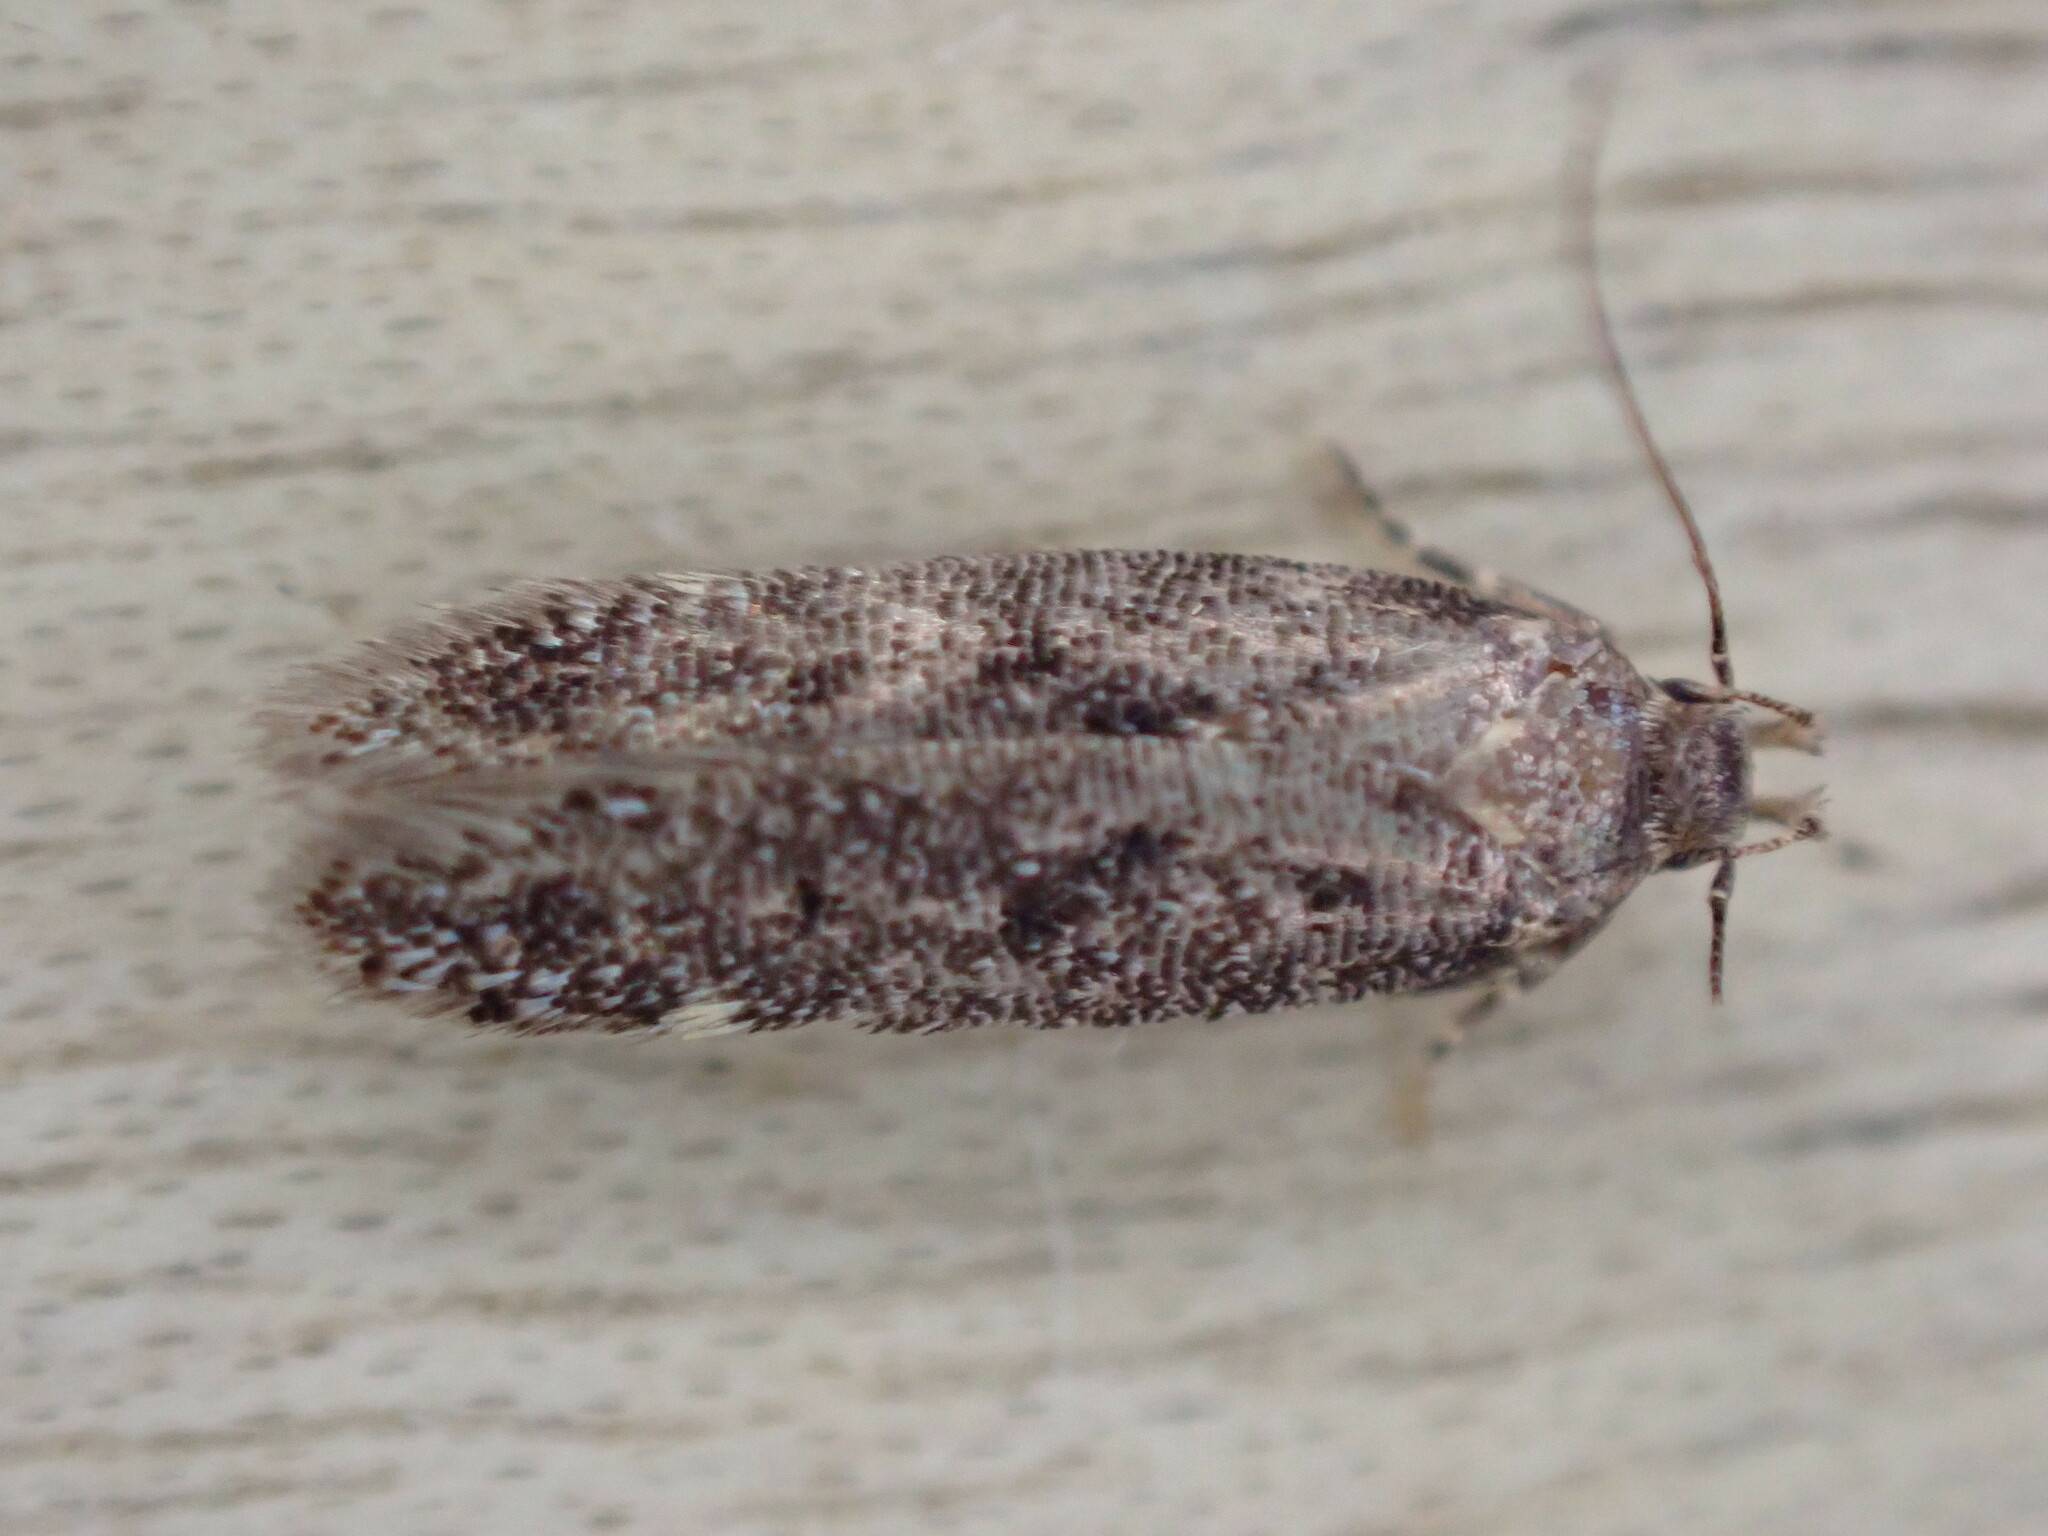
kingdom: Animalia
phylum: Arthropoda
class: Insecta
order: Lepidoptera
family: Oecophoridae
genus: Hofmannophila
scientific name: Hofmannophila pseudospretella
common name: Brown house moth
